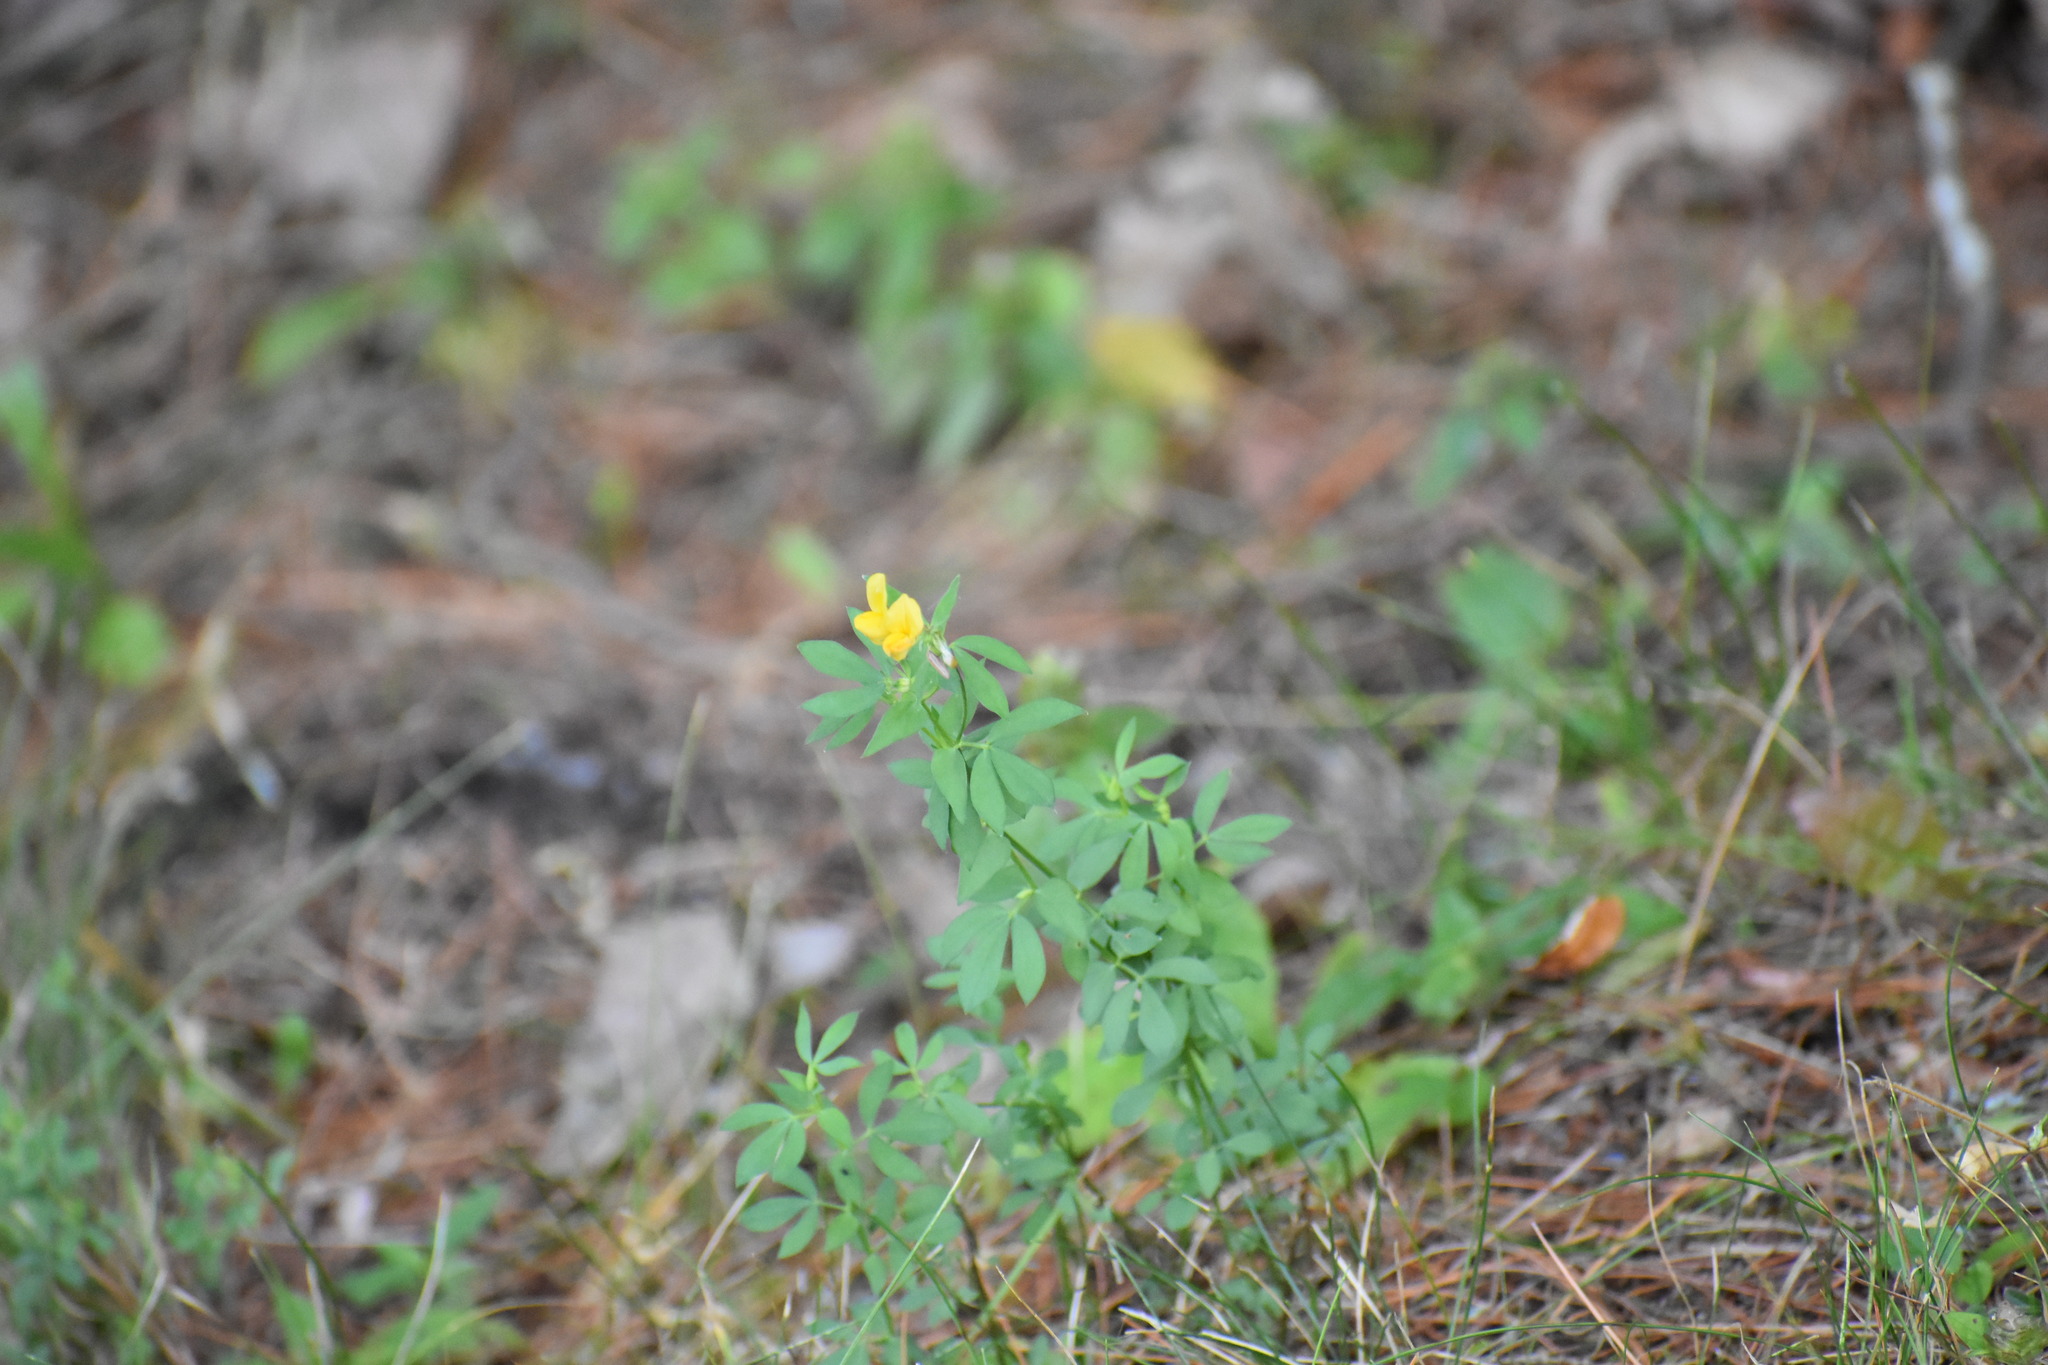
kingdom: Plantae
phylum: Tracheophyta
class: Magnoliopsida
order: Fabales
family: Fabaceae
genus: Lotus
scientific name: Lotus corniculatus
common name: Common bird's-foot-trefoil
